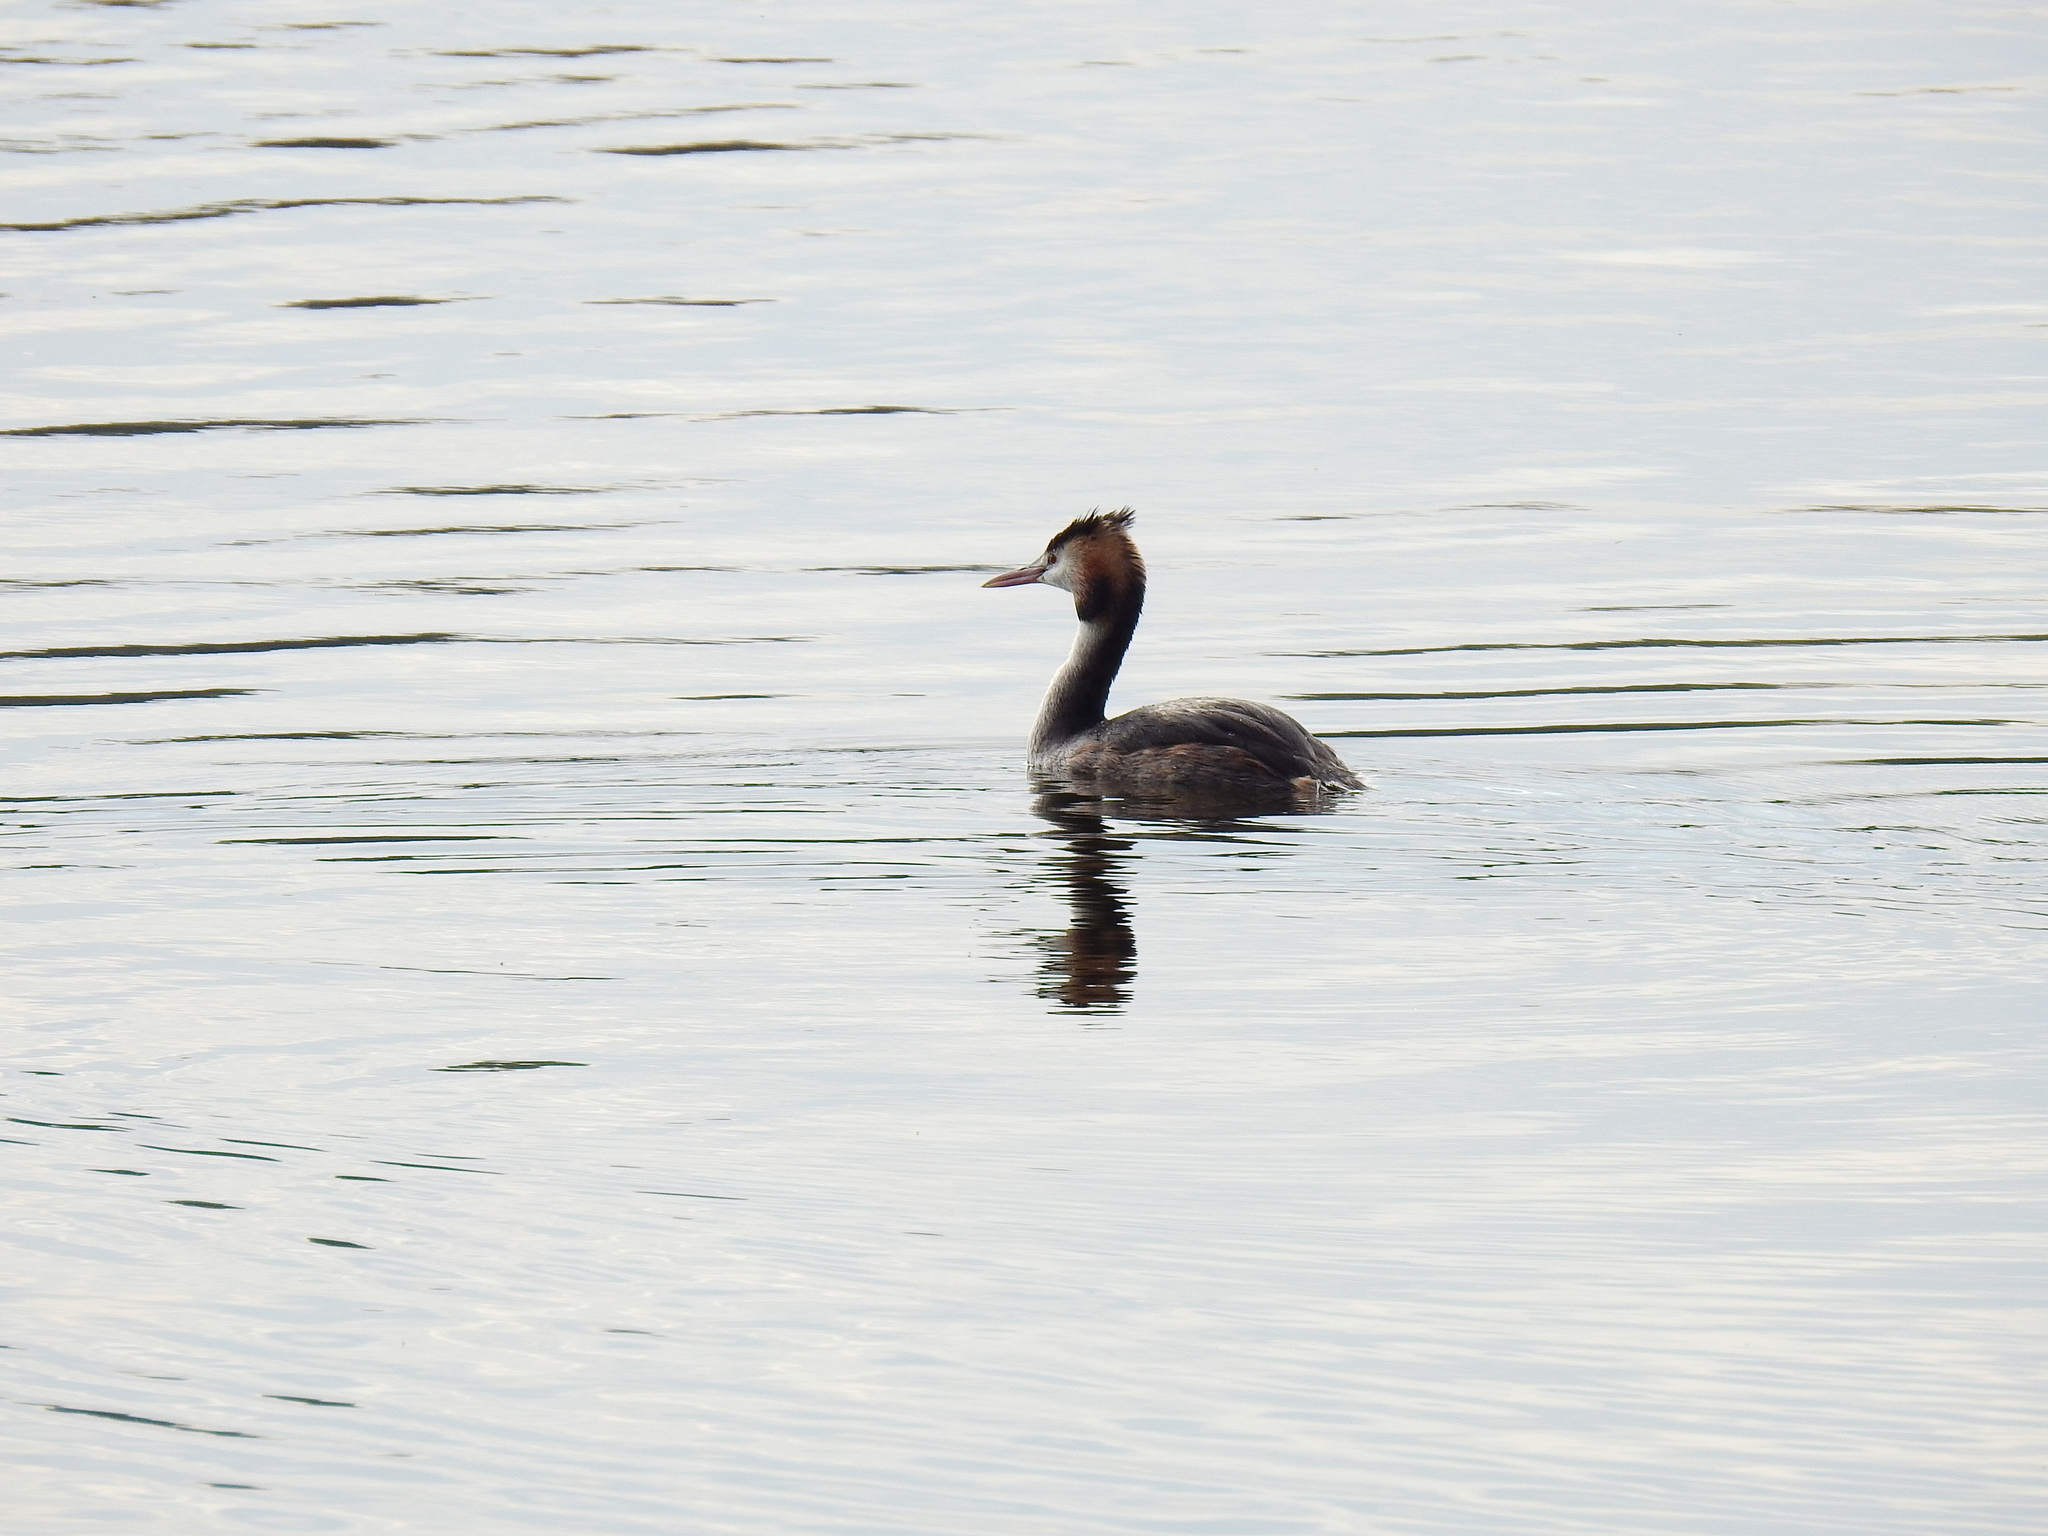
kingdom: Animalia
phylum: Chordata
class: Aves
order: Podicipediformes
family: Podicipedidae
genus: Podiceps
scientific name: Podiceps cristatus
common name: Great crested grebe
